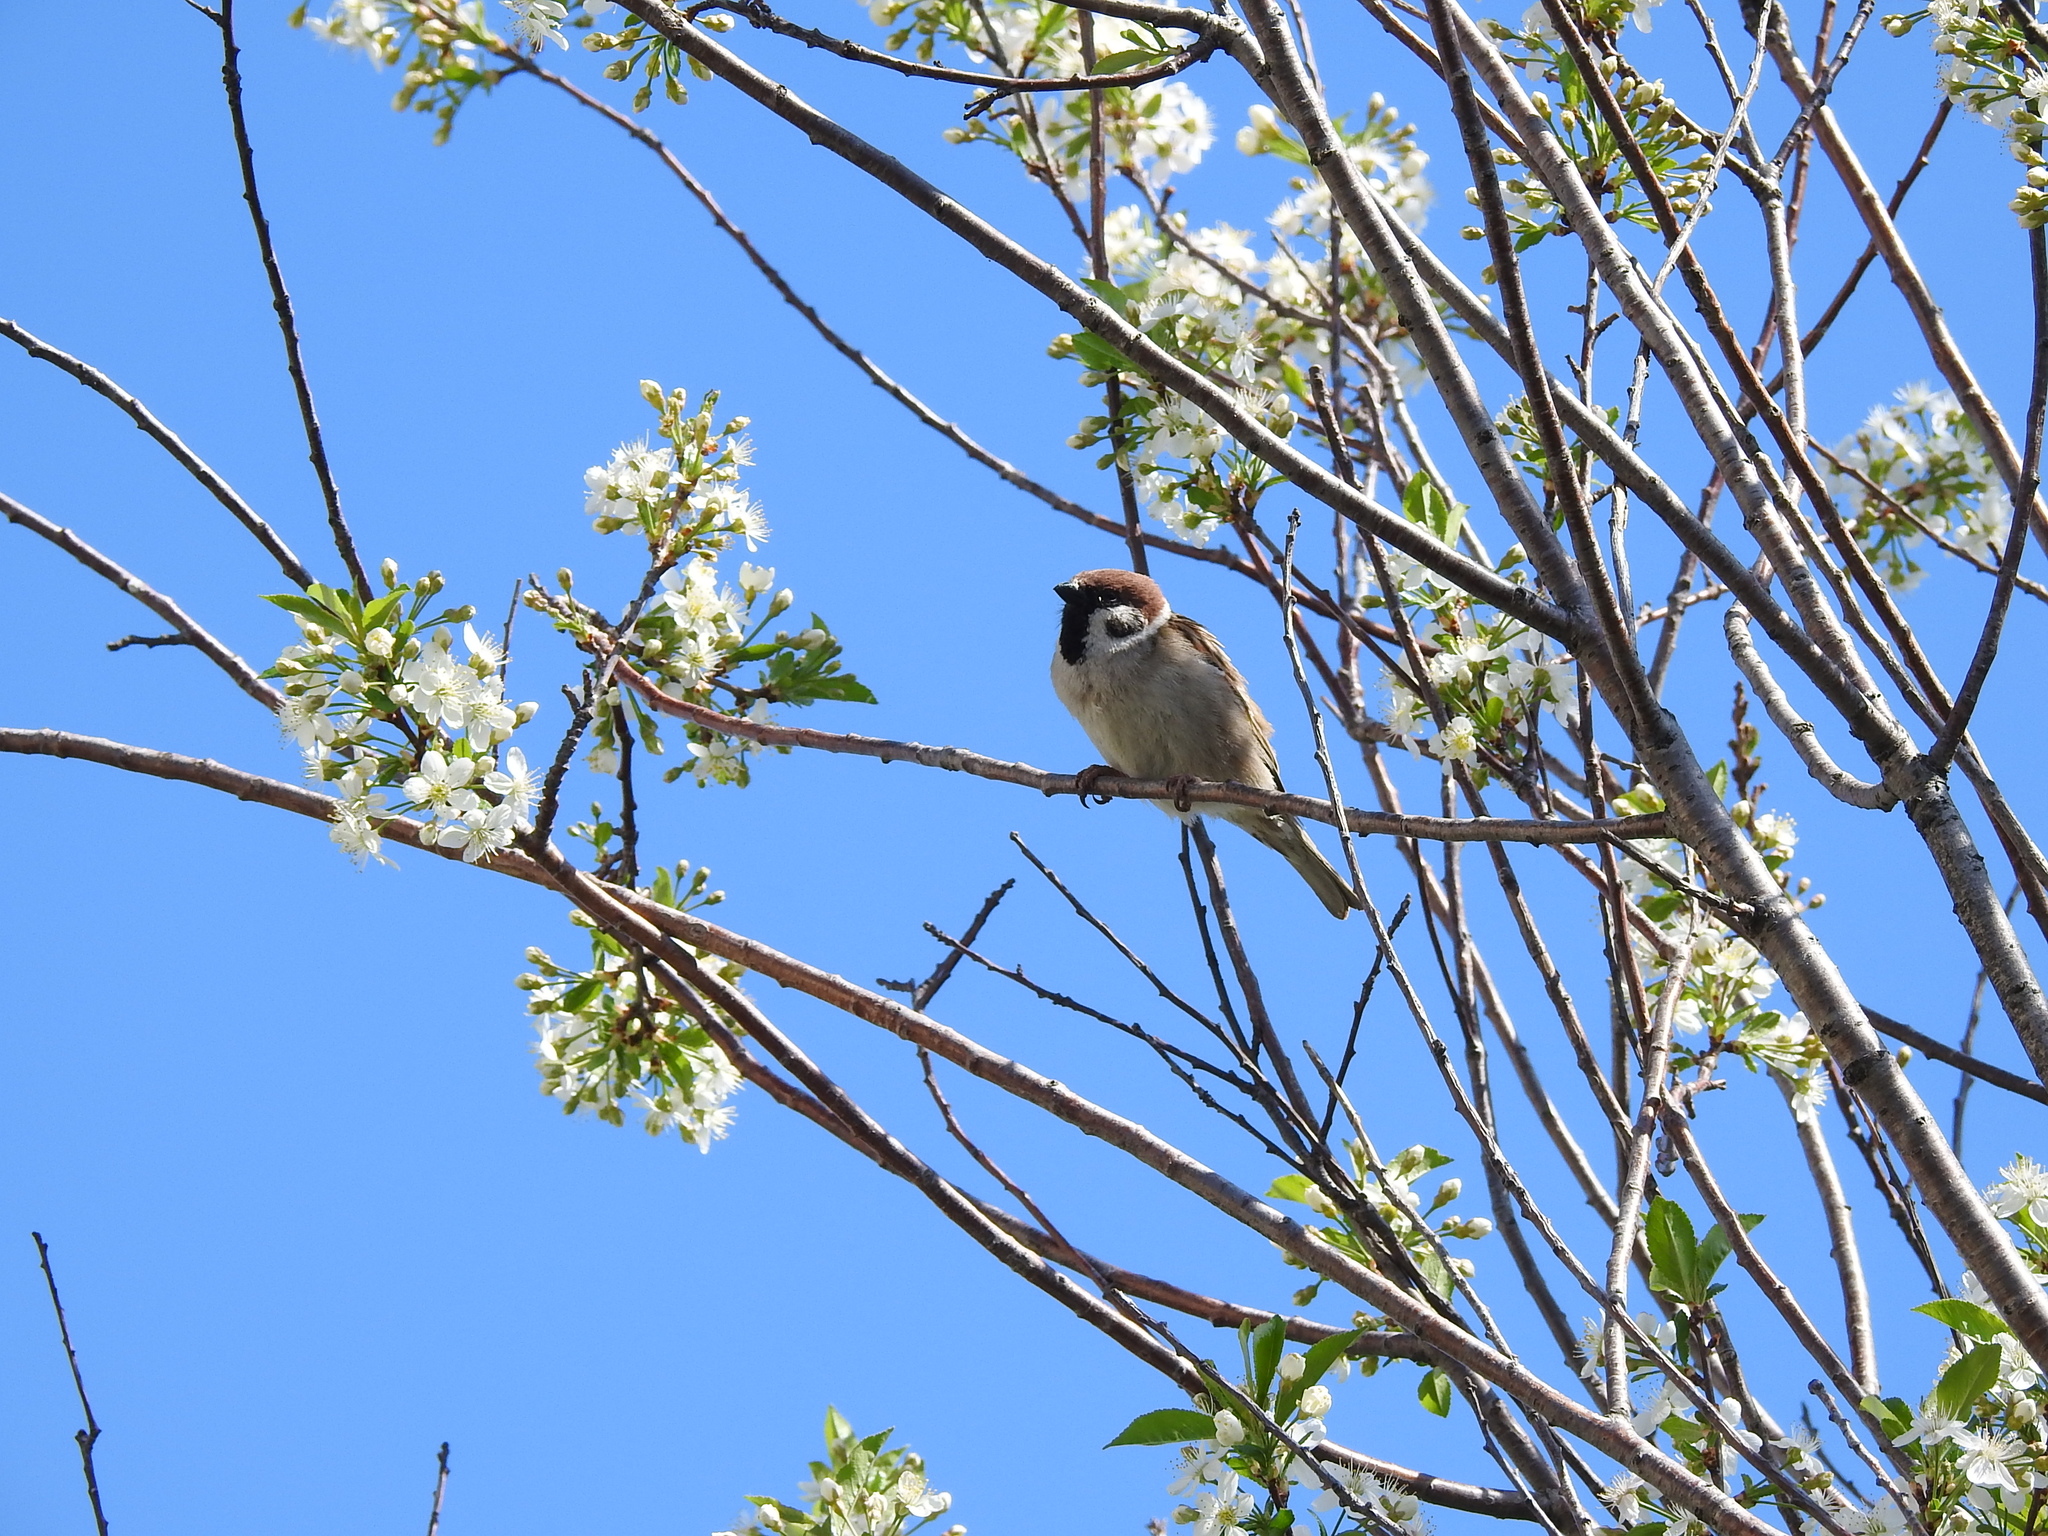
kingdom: Animalia
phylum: Chordata
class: Aves
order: Passeriformes
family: Passeridae
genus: Passer
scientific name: Passer montanus
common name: Eurasian tree sparrow
